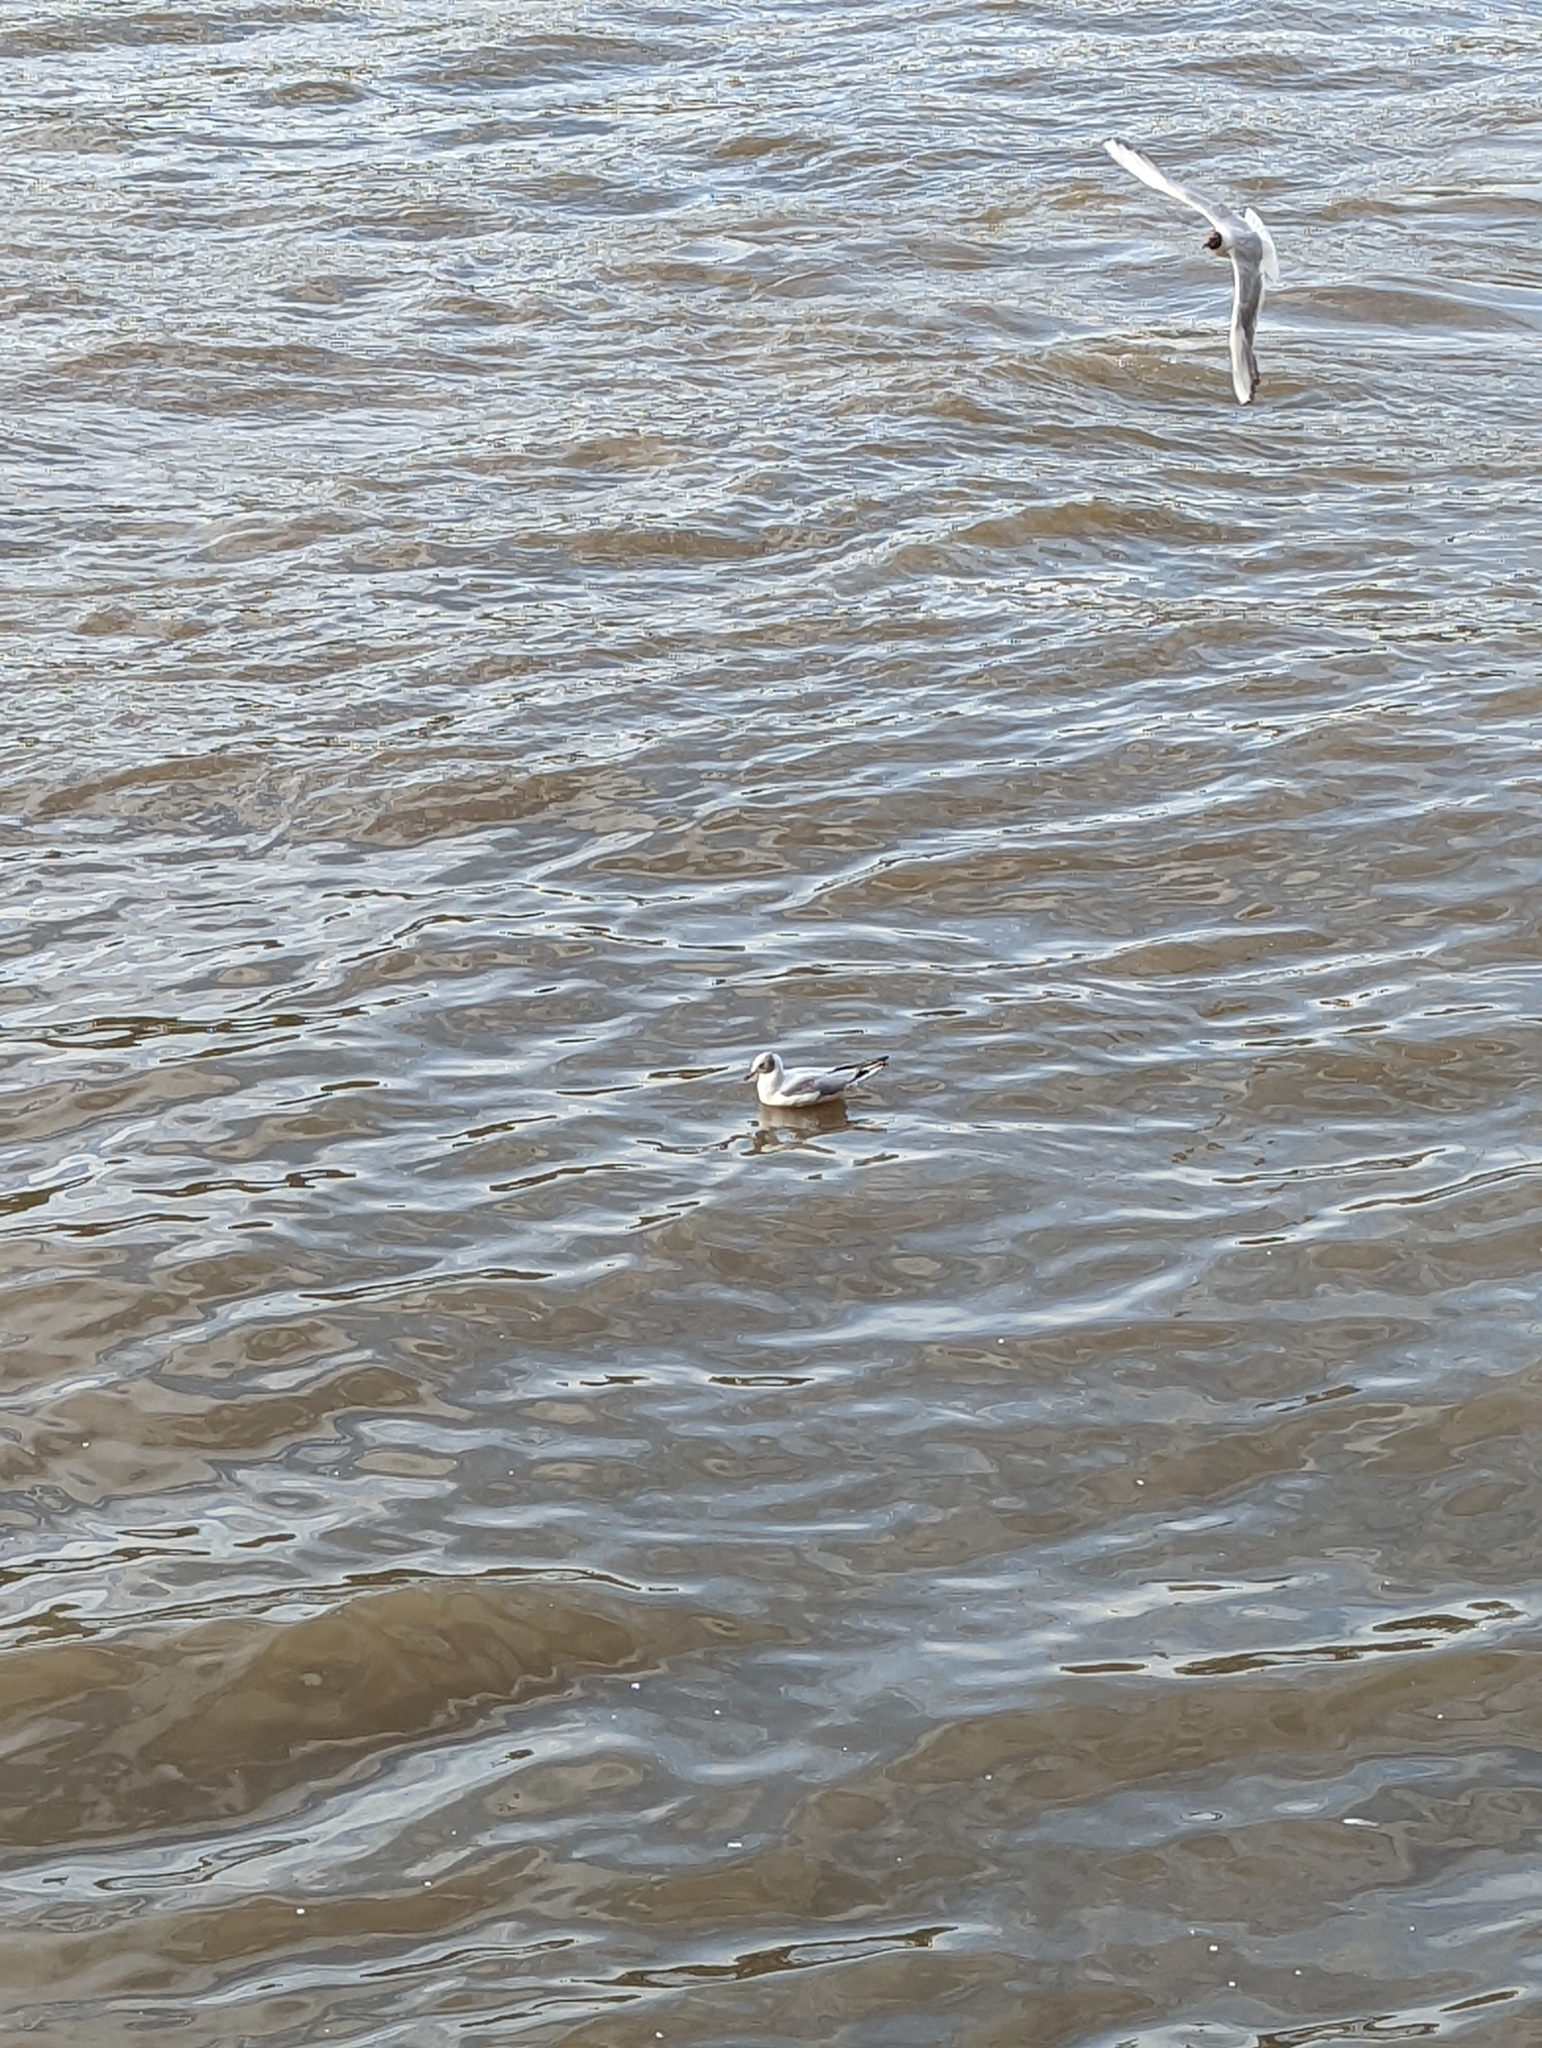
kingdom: Animalia
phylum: Chordata
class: Aves
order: Charadriiformes
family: Laridae
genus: Chroicocephalus
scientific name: Chroicocephalus ridibundus
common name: Black-headed gull
